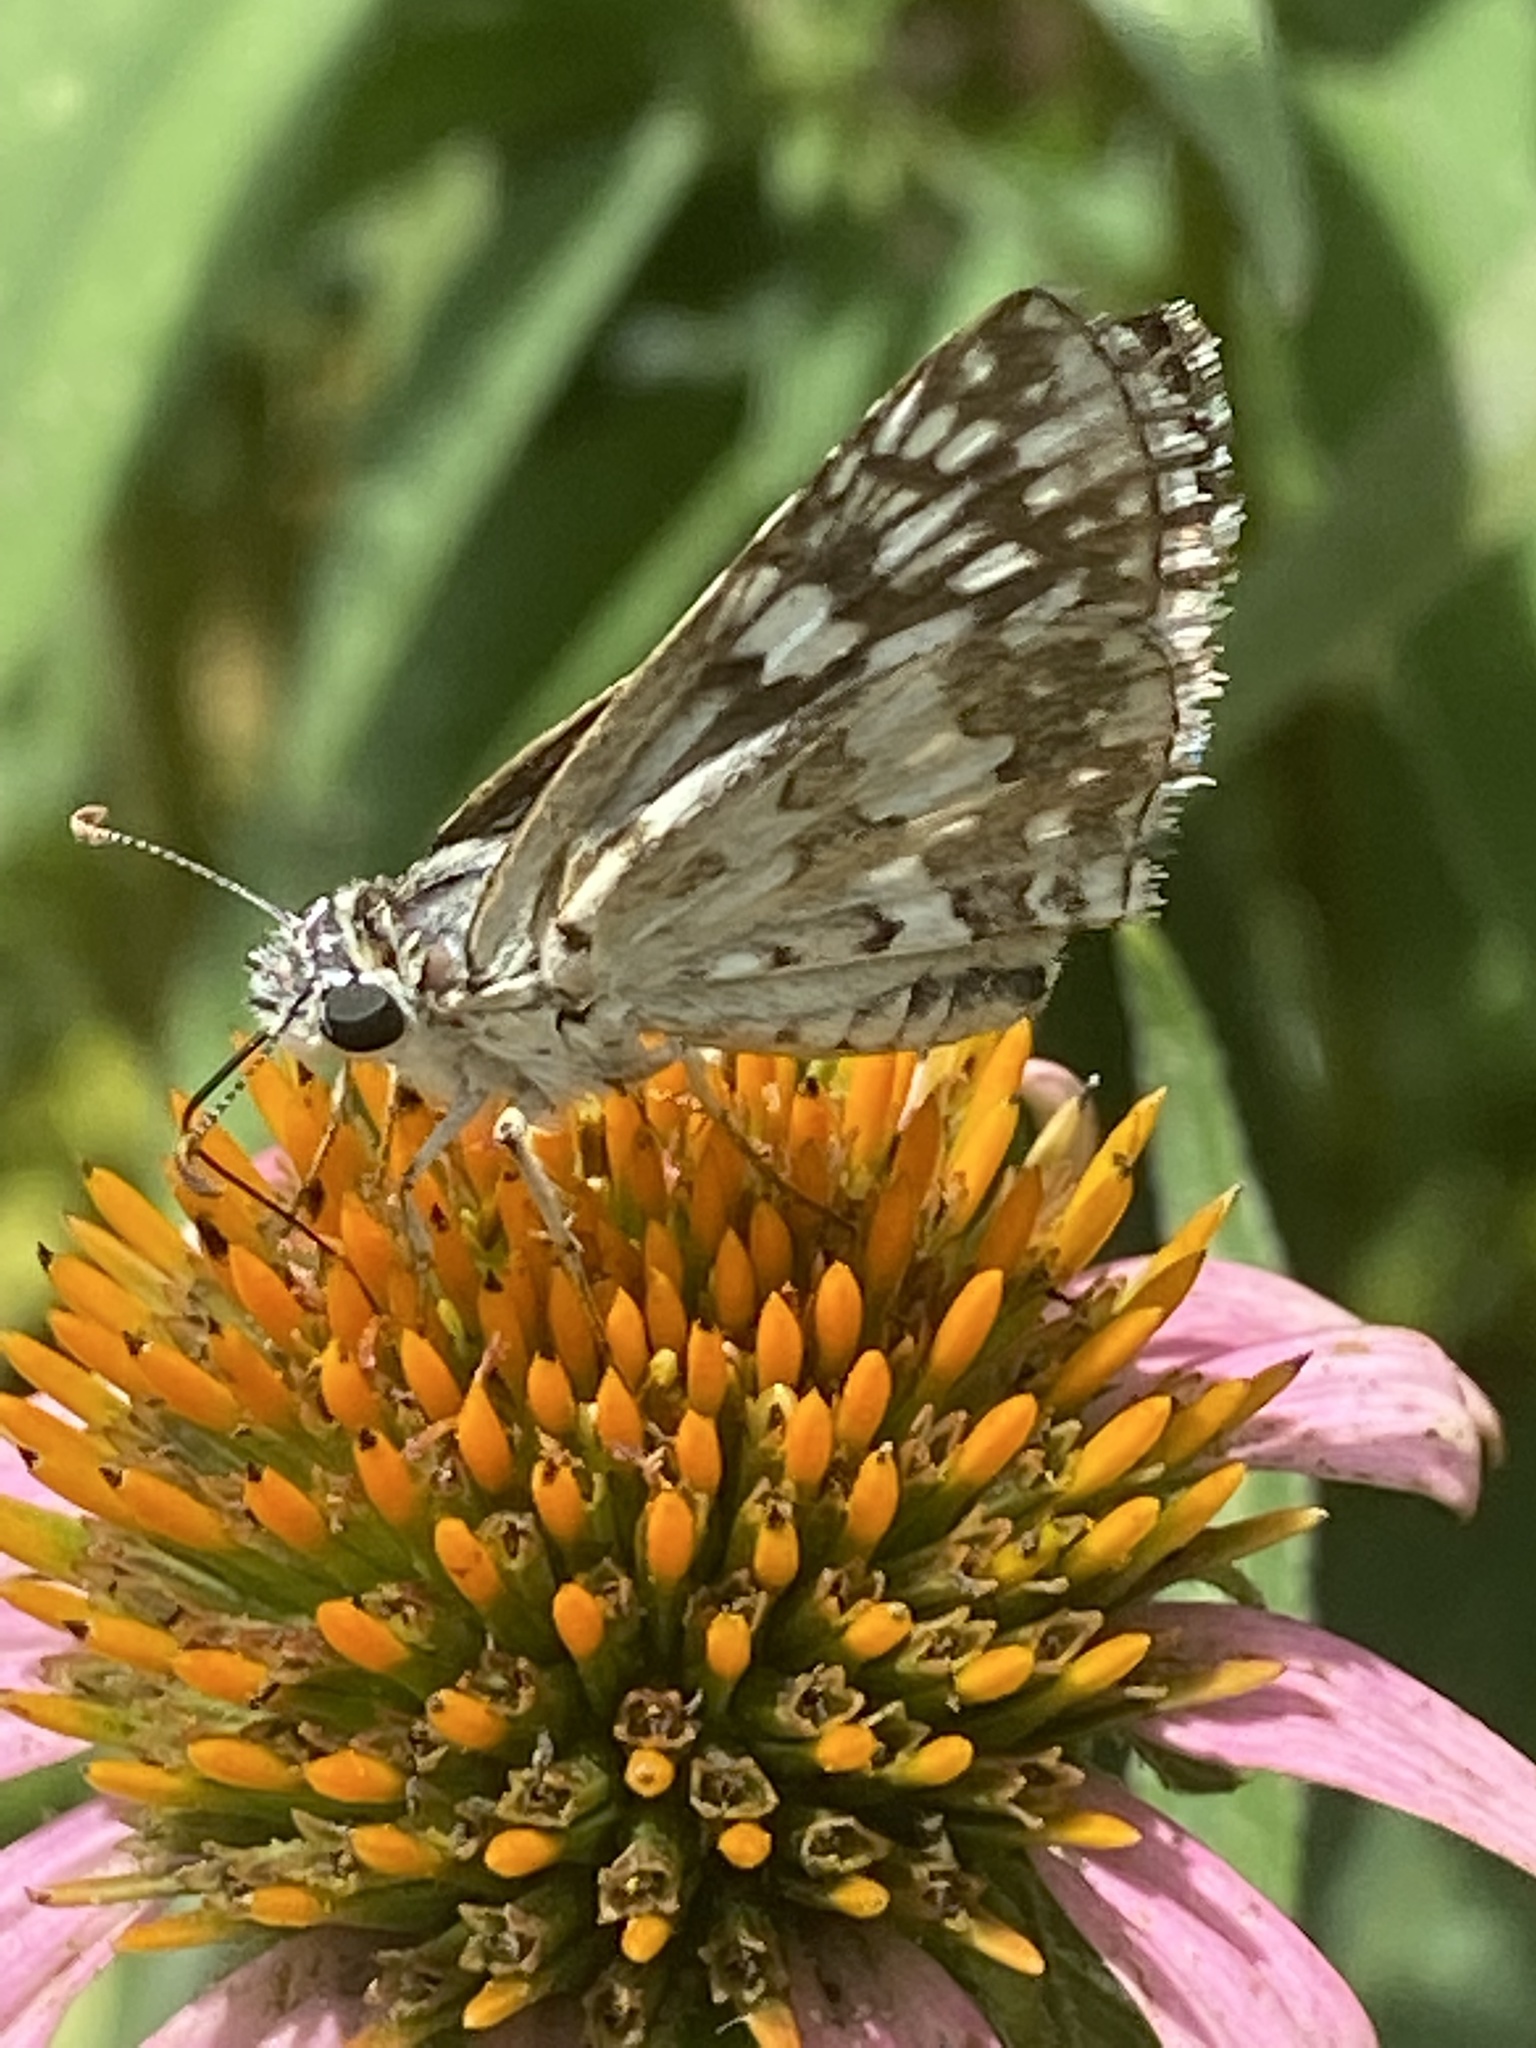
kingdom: Animalia
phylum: Arthropoda
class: Insecta
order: Lepidoptera
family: Hesperiidae
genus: Burnsius
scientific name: Burnsius communis
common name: Common checkered-skipper
